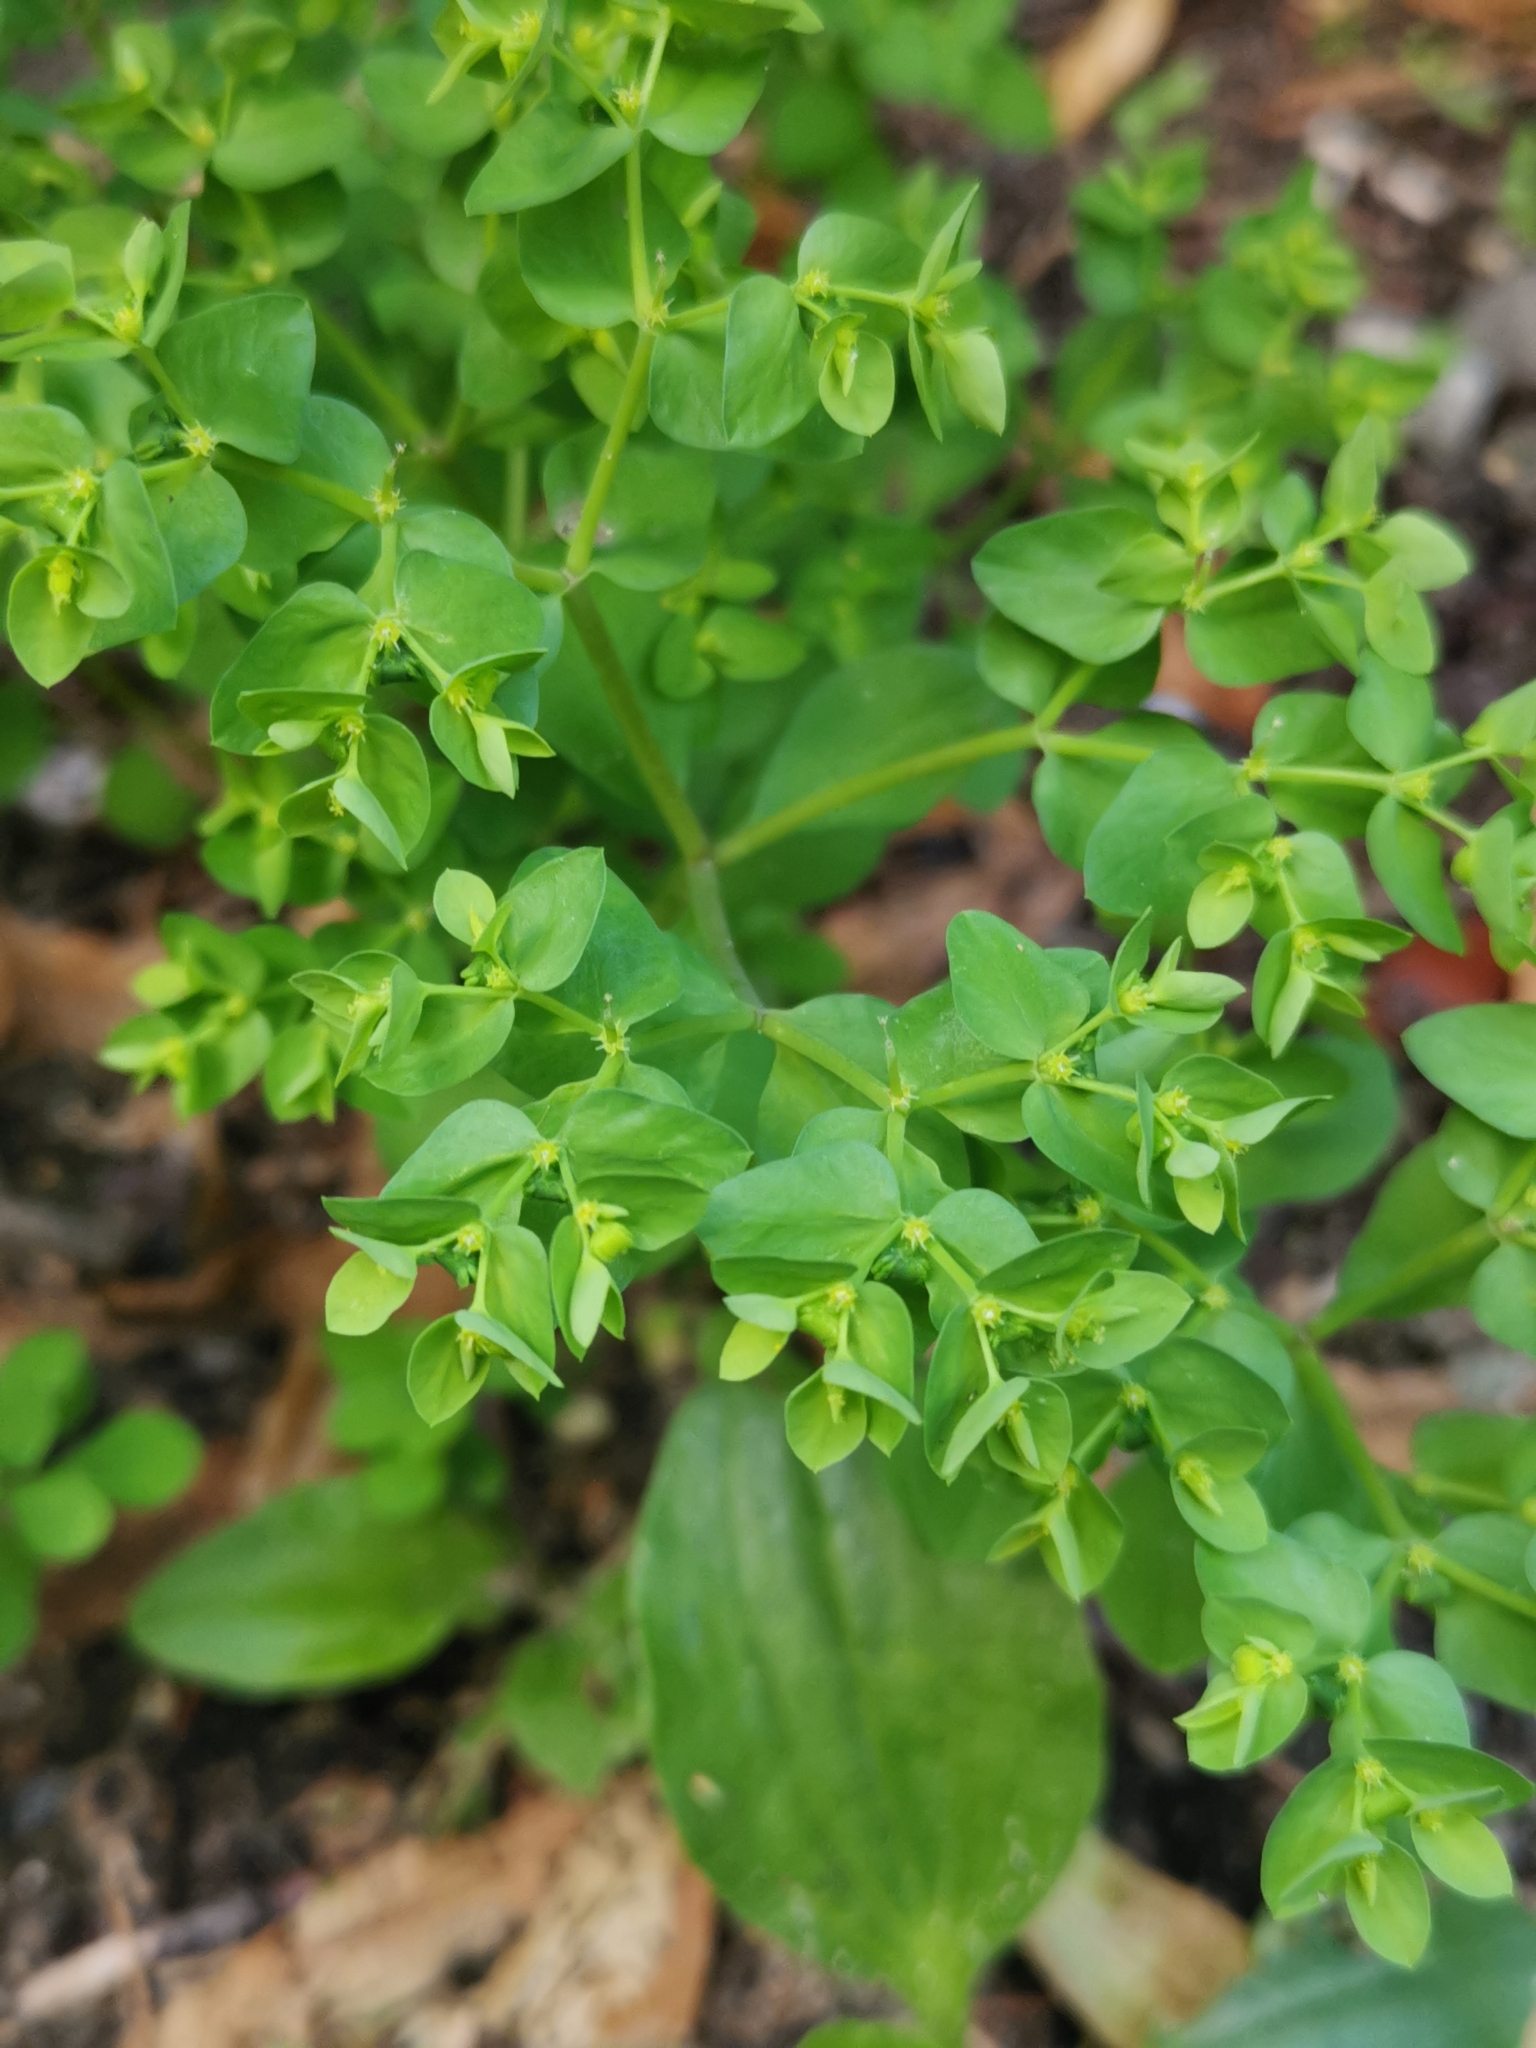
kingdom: Plantae
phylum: Tracheophyta
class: Magnoliopsida
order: Malpighiales
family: Euphorbiaceae
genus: Euphorbia
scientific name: Euphorbia peplus
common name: Petty spurge
